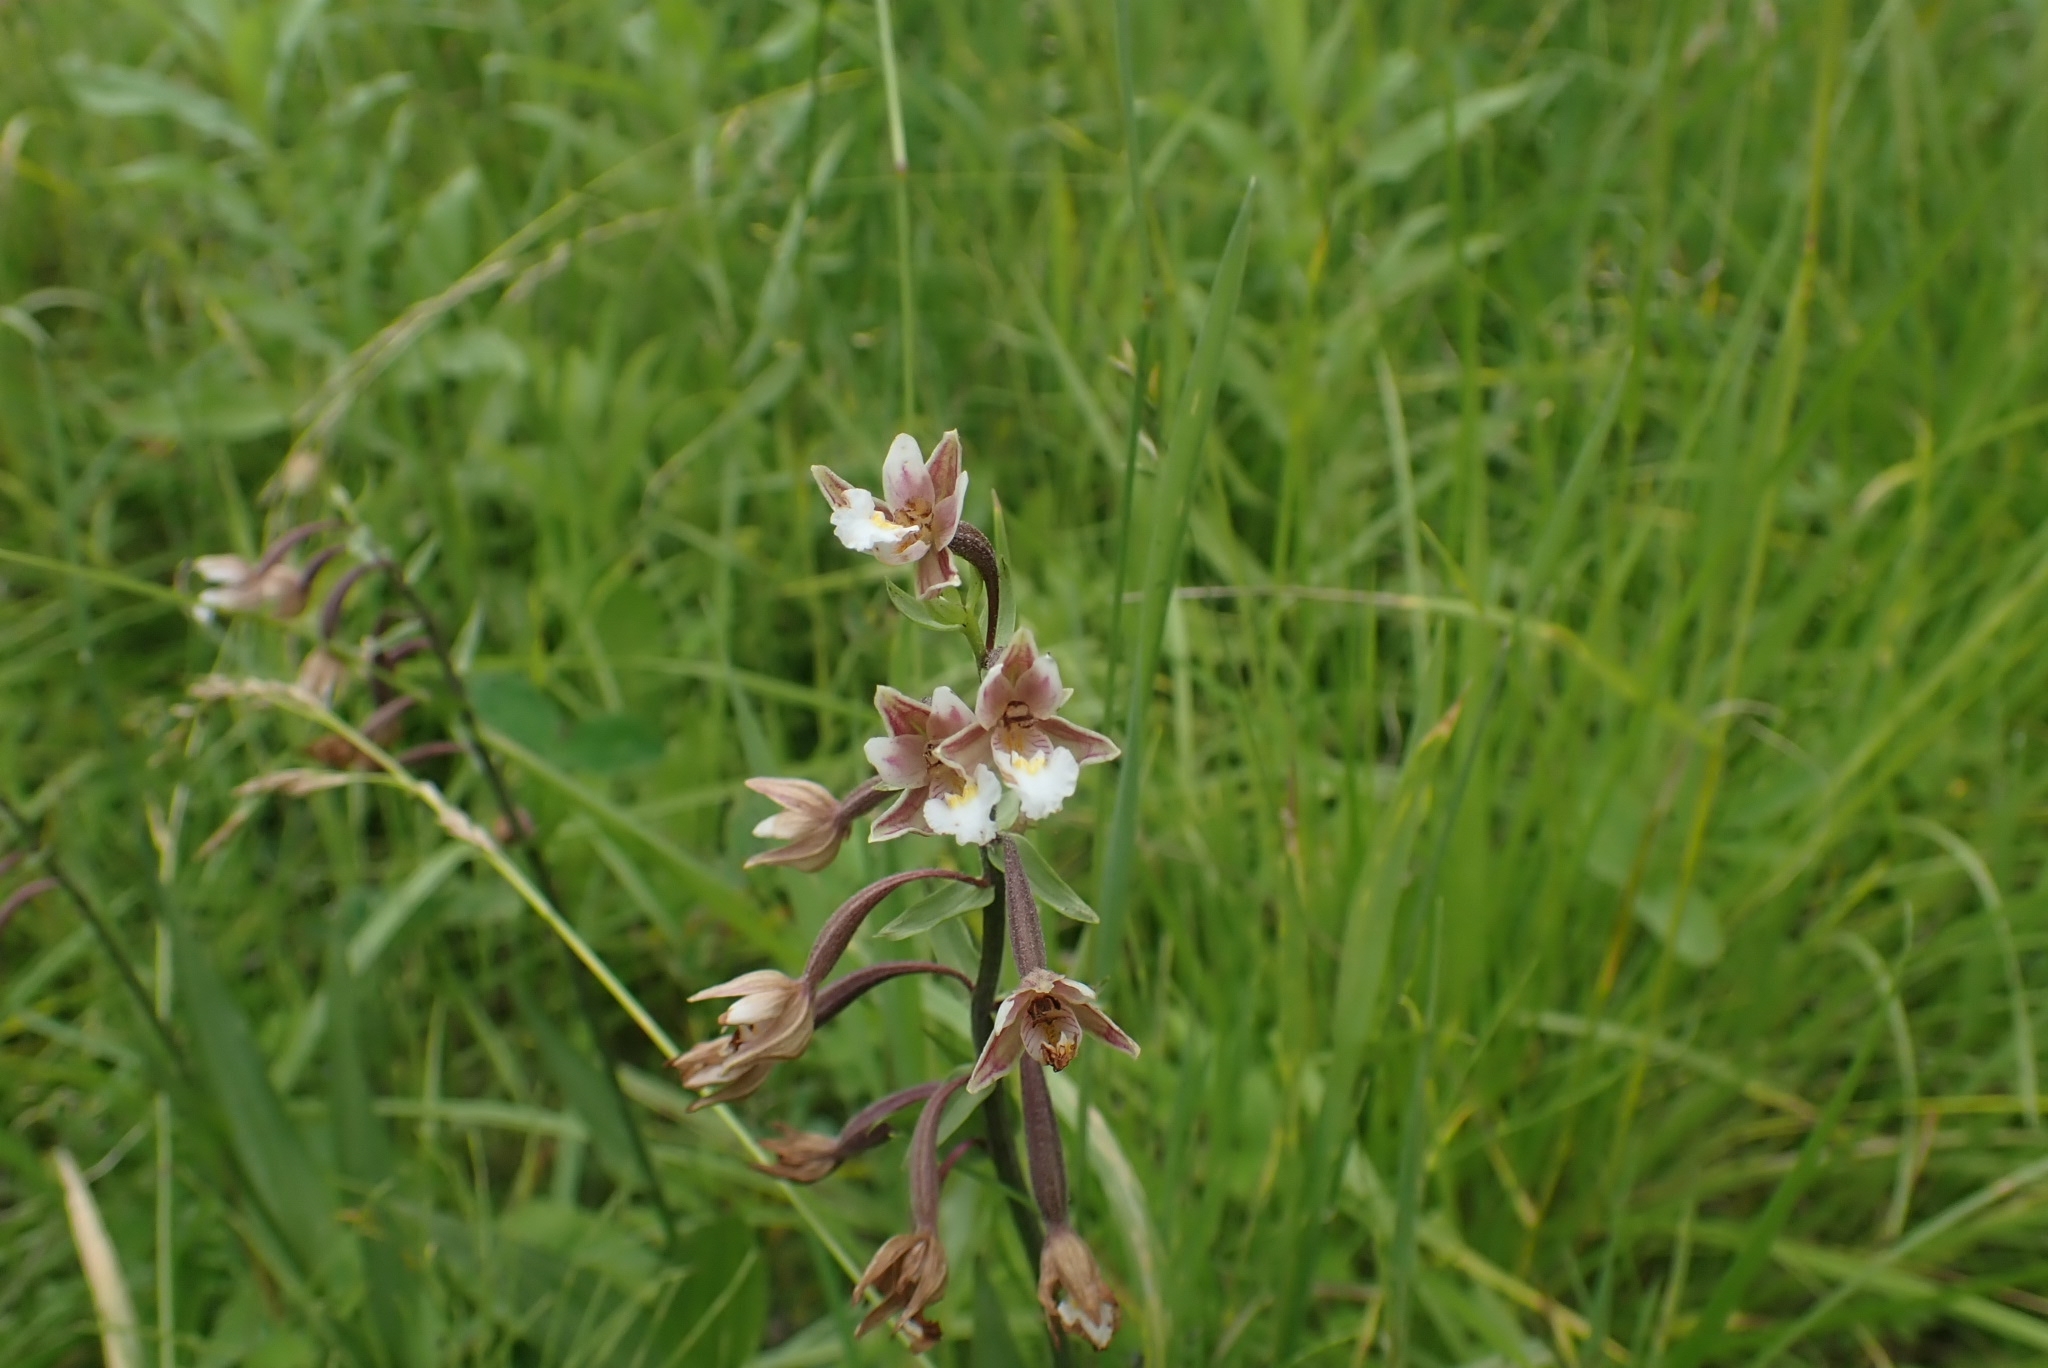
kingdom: Plantae
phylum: Tracheophyta
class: Liliopsida
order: Asparagales
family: Orchidaceae
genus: Epipactis
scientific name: Epipactis palustris
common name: Marsh helleborine
